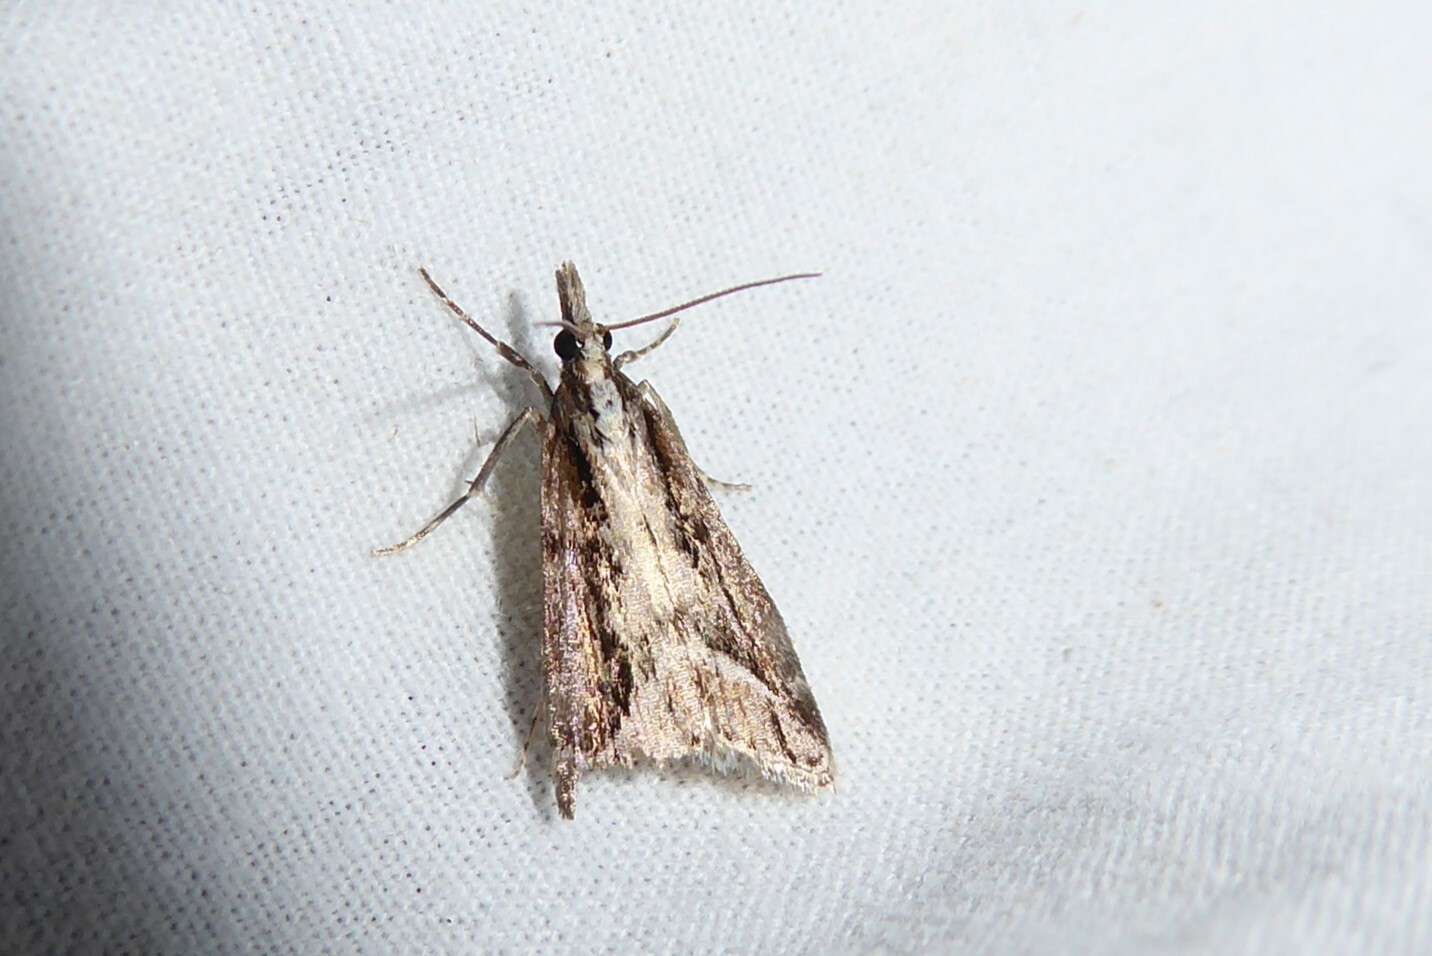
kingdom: Animalia
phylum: Arthropoda
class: Insecta
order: Lepidoptera
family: Crambidae
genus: Eudonia
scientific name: Eudonia steropaea
